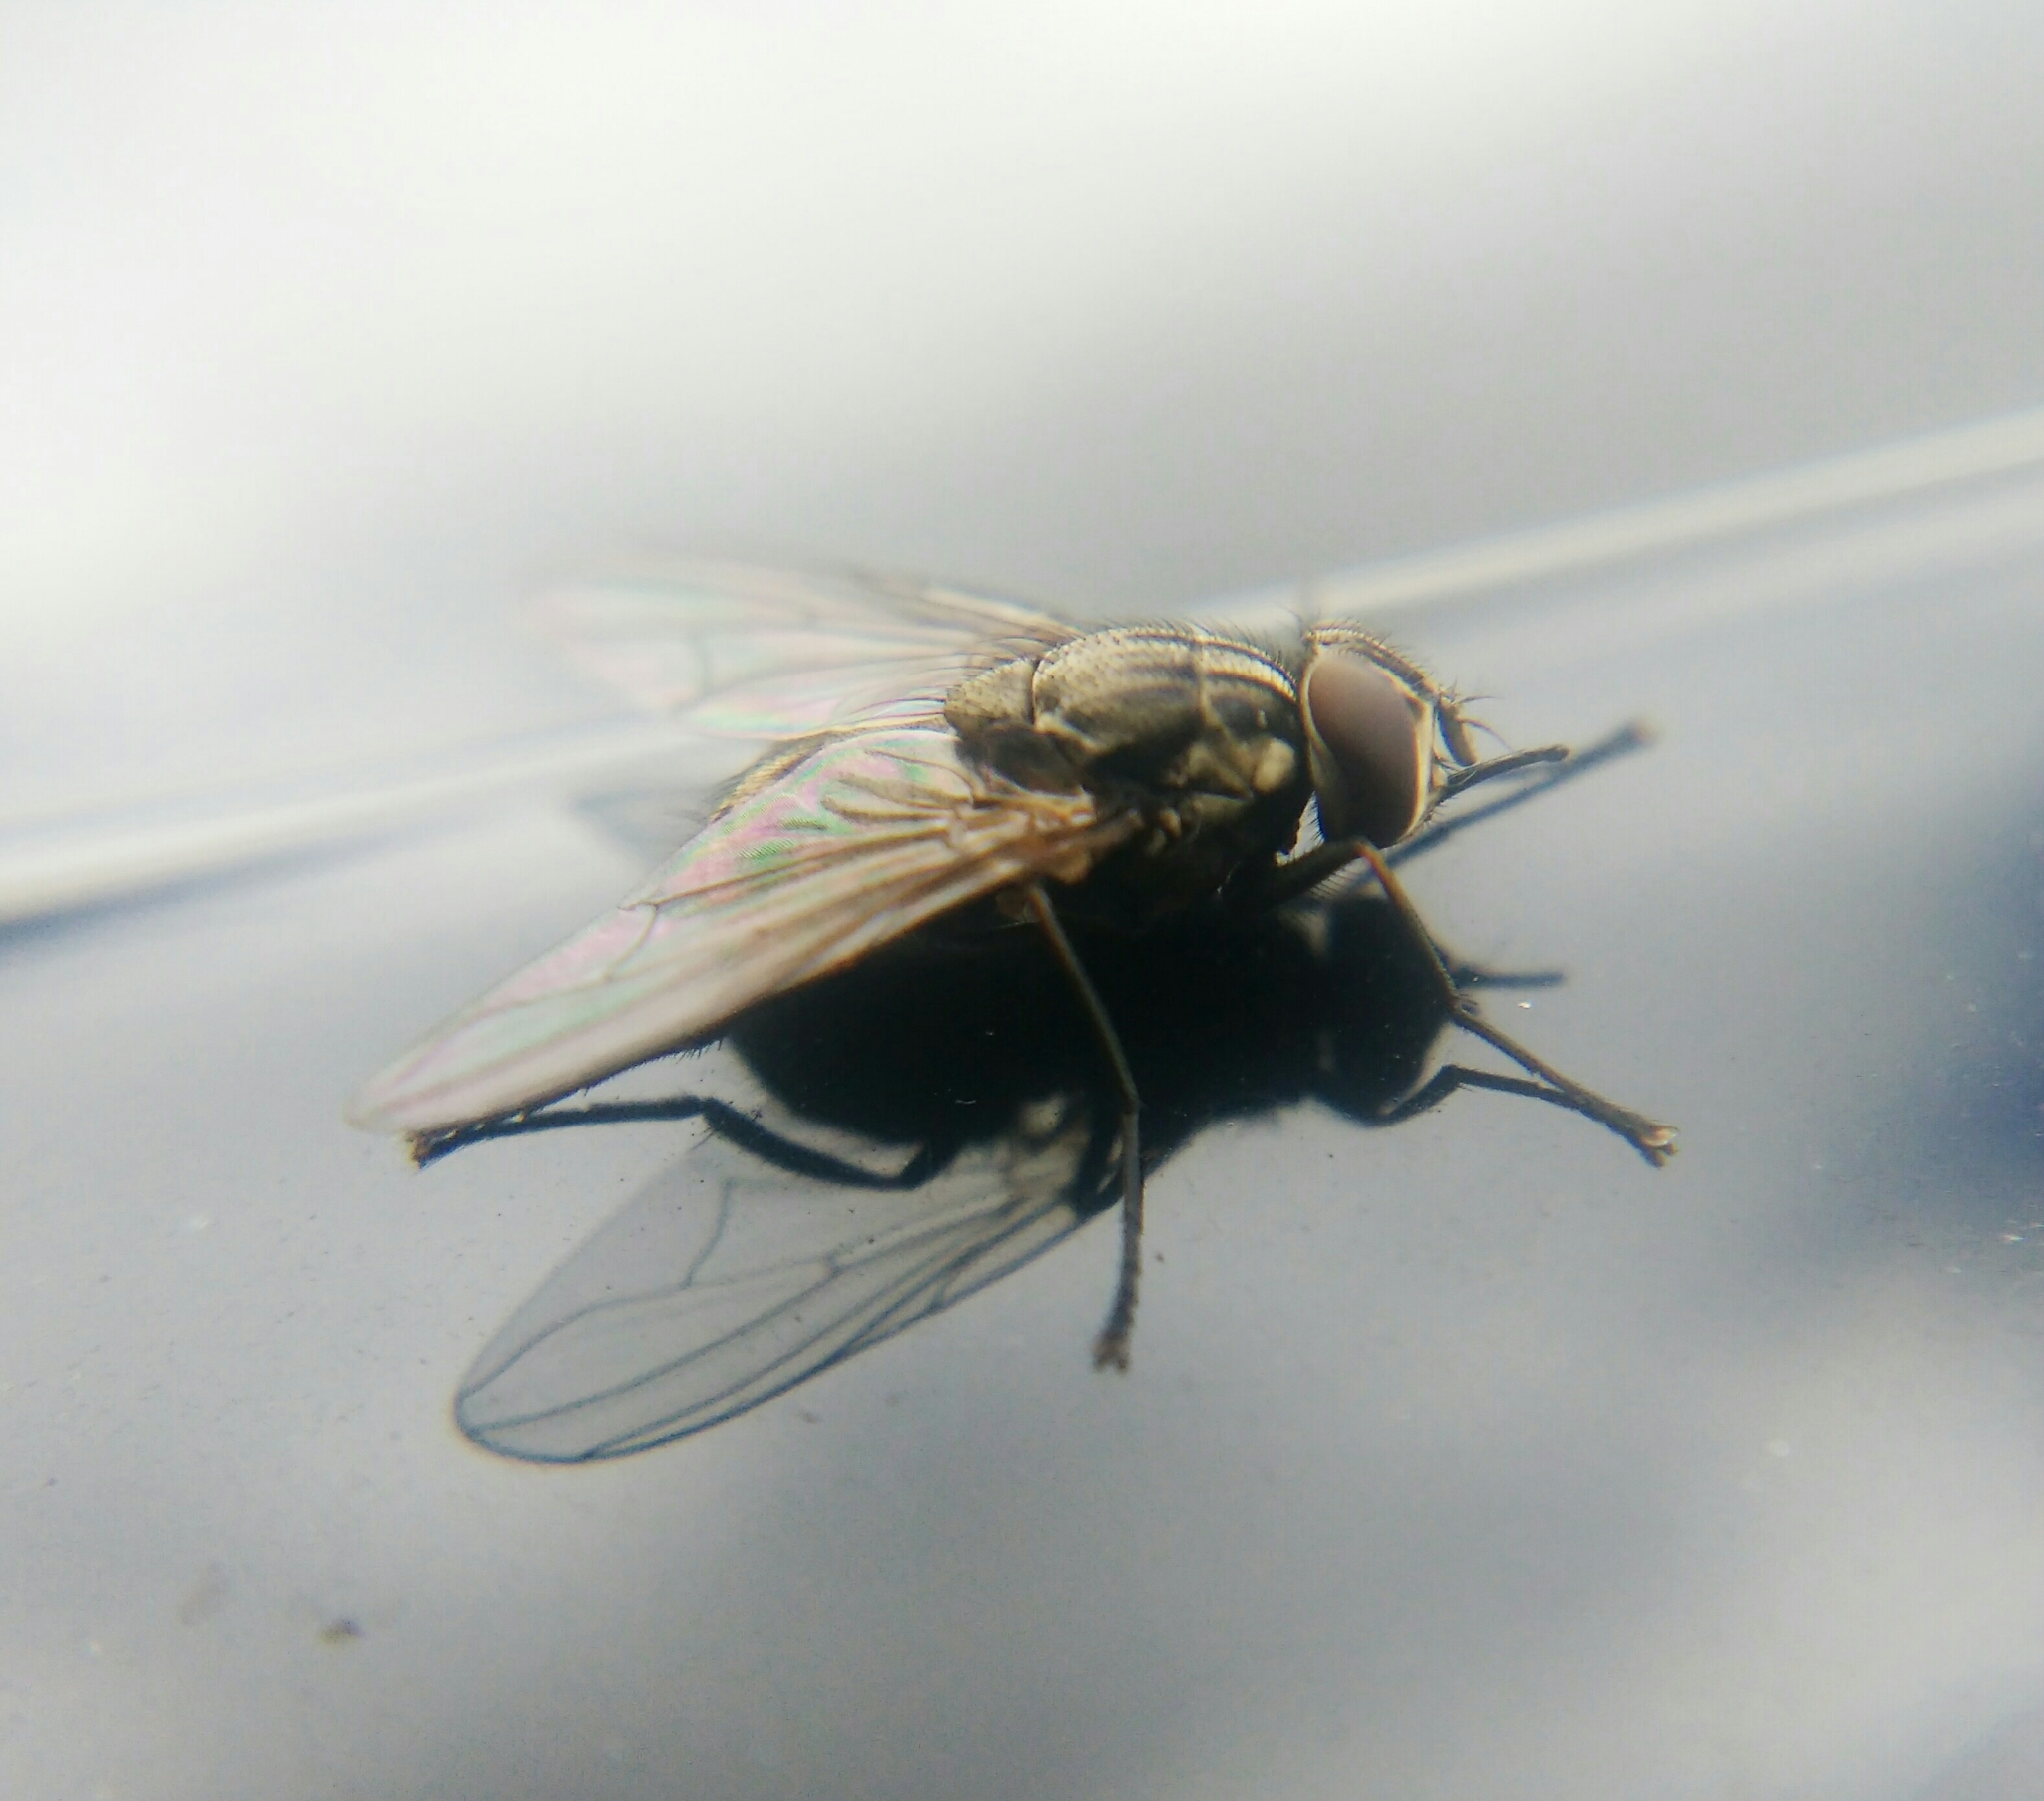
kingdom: Animalia
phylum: Arthropoda
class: Insecta
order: Diptera
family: Muscidae
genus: Stomoxys
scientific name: Stomoxys calcitrans
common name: Stable fly
